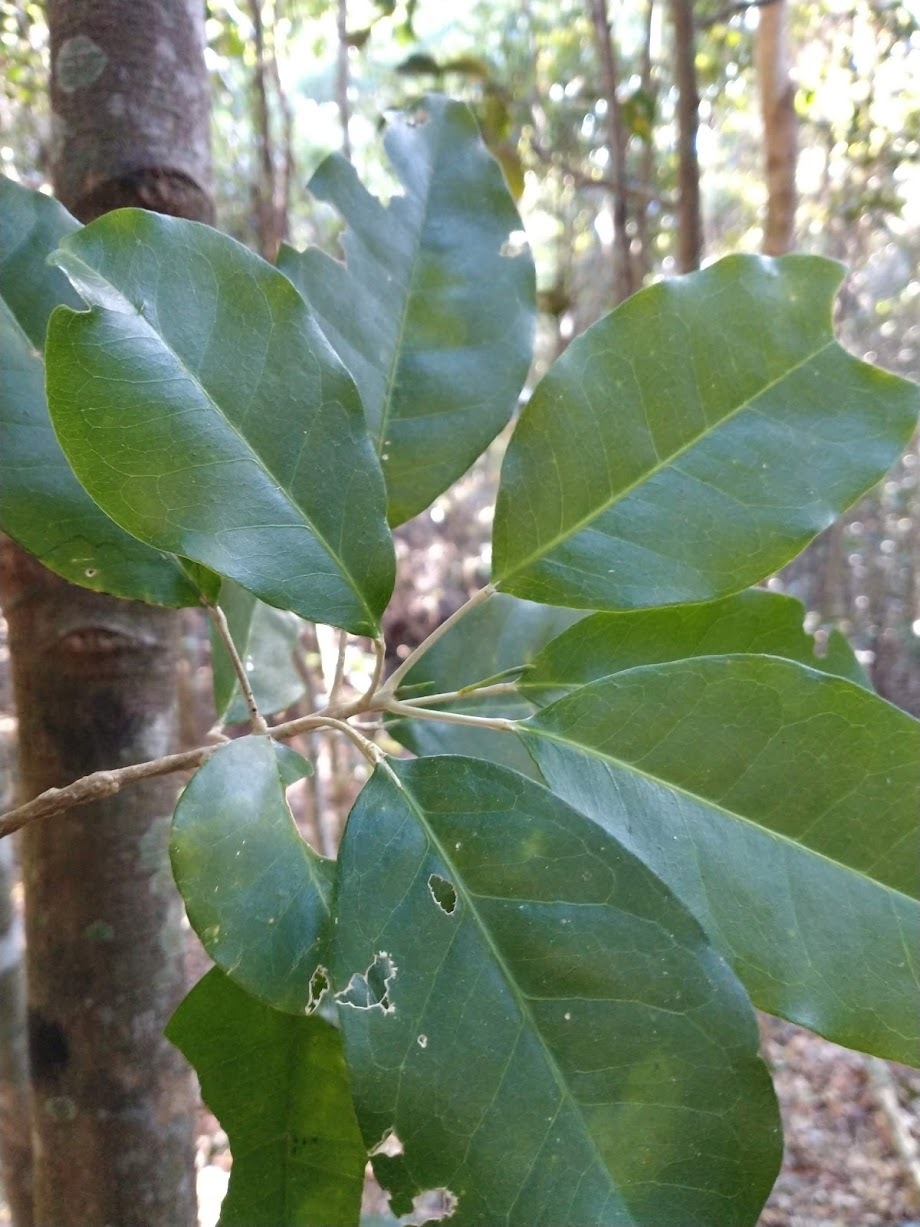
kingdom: Plantae
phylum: Tracheophyta
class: Magnoliopsida
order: Sapindales
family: Rutaceae
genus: Sarcomelicope
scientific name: Sarcomelicope simplicifolia
